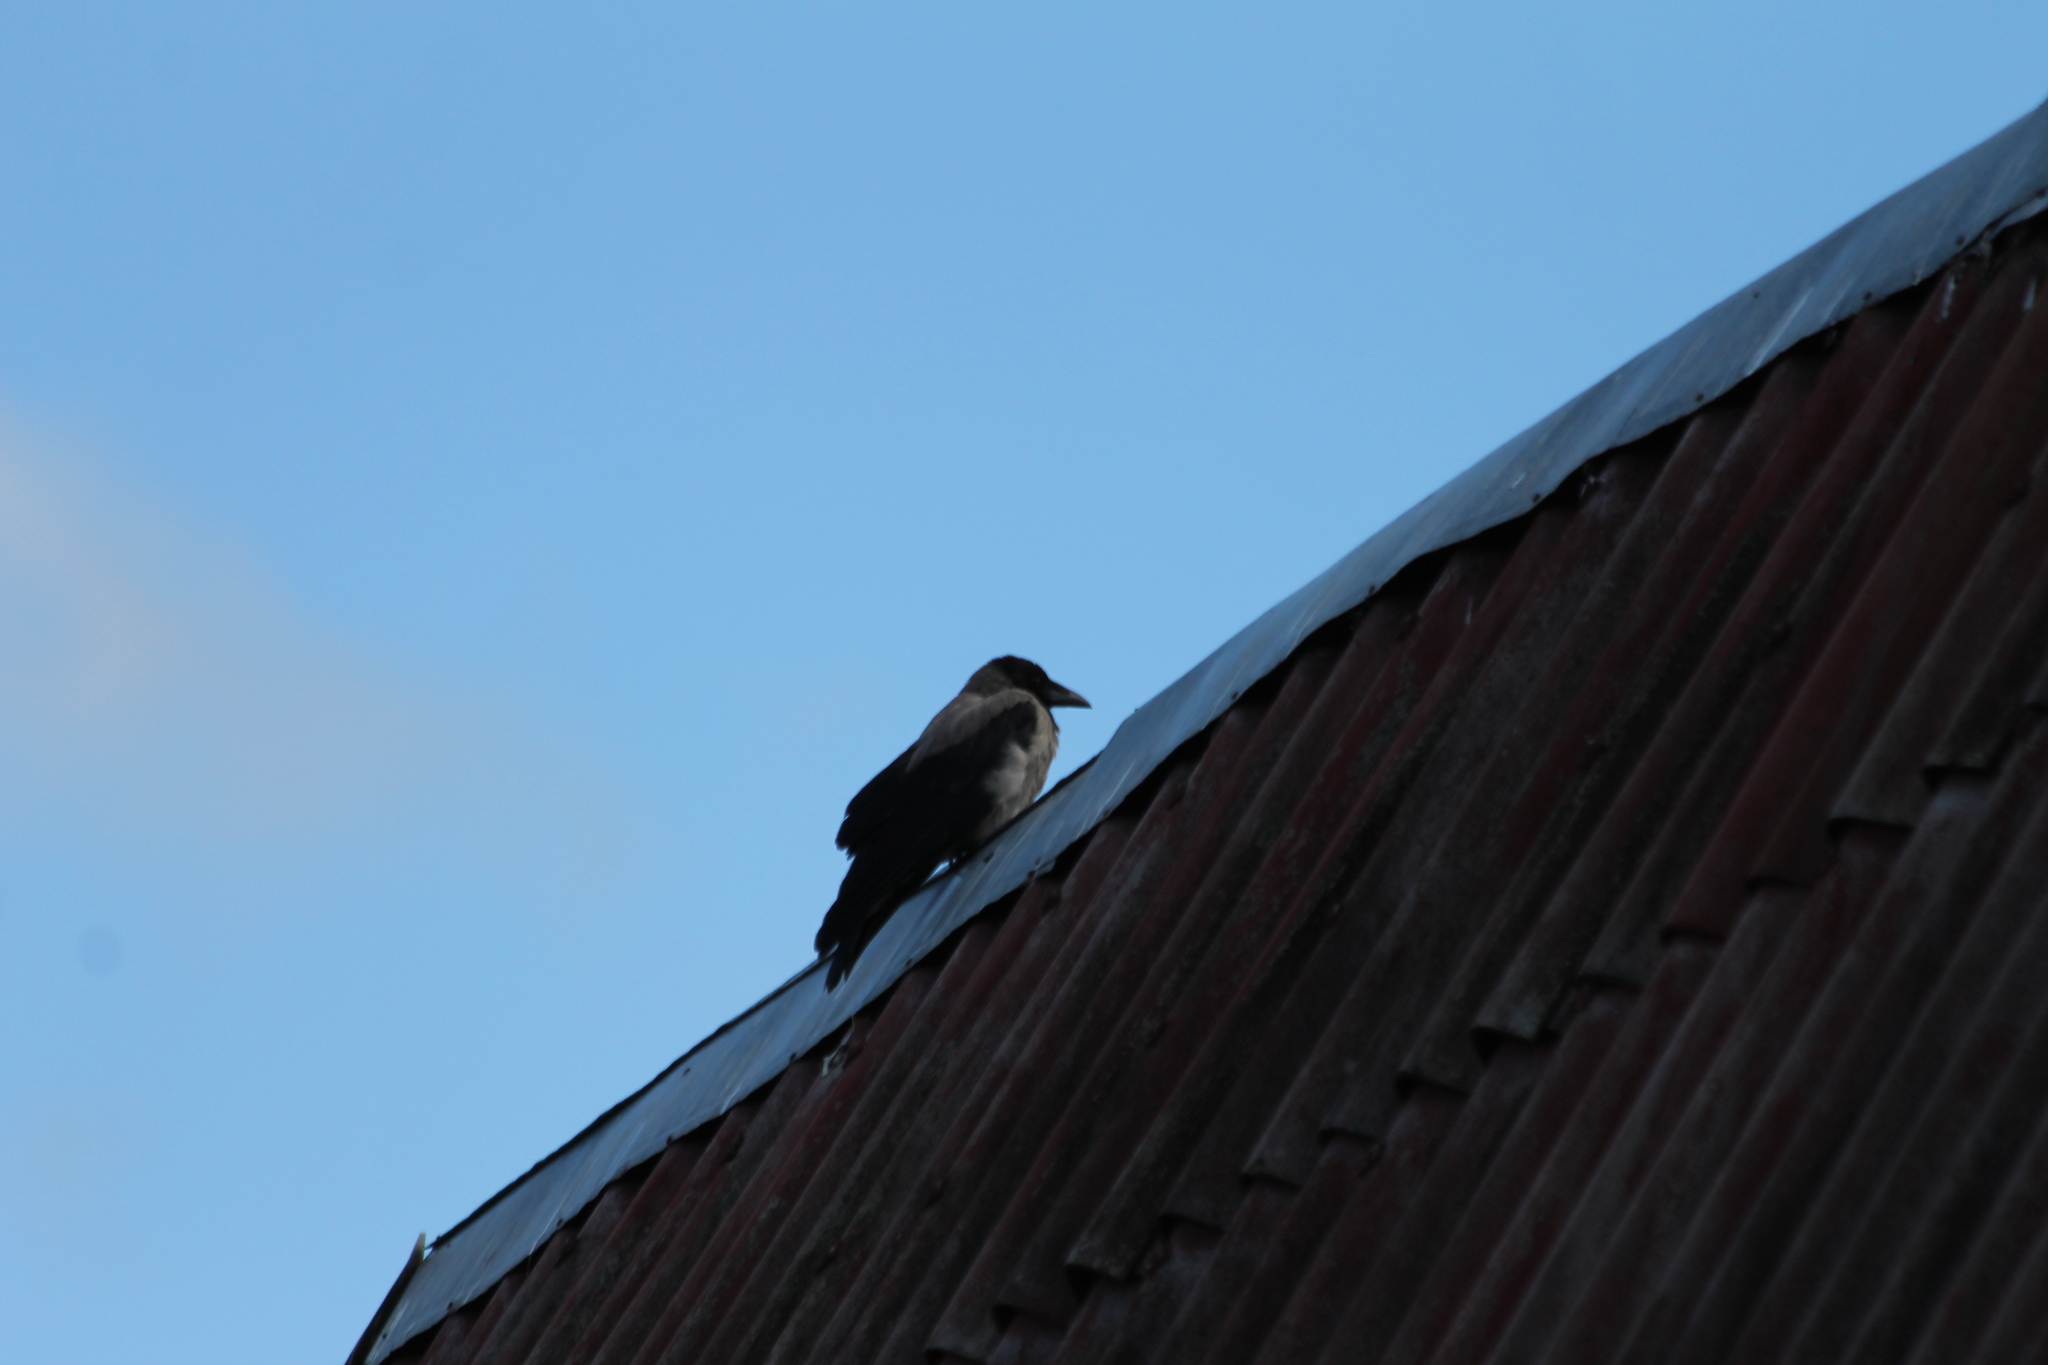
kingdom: Animalia
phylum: Chordata
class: Aves
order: Passeriformes
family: Corvidae
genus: Corvus
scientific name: Corvus cornix
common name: Hooded crow
